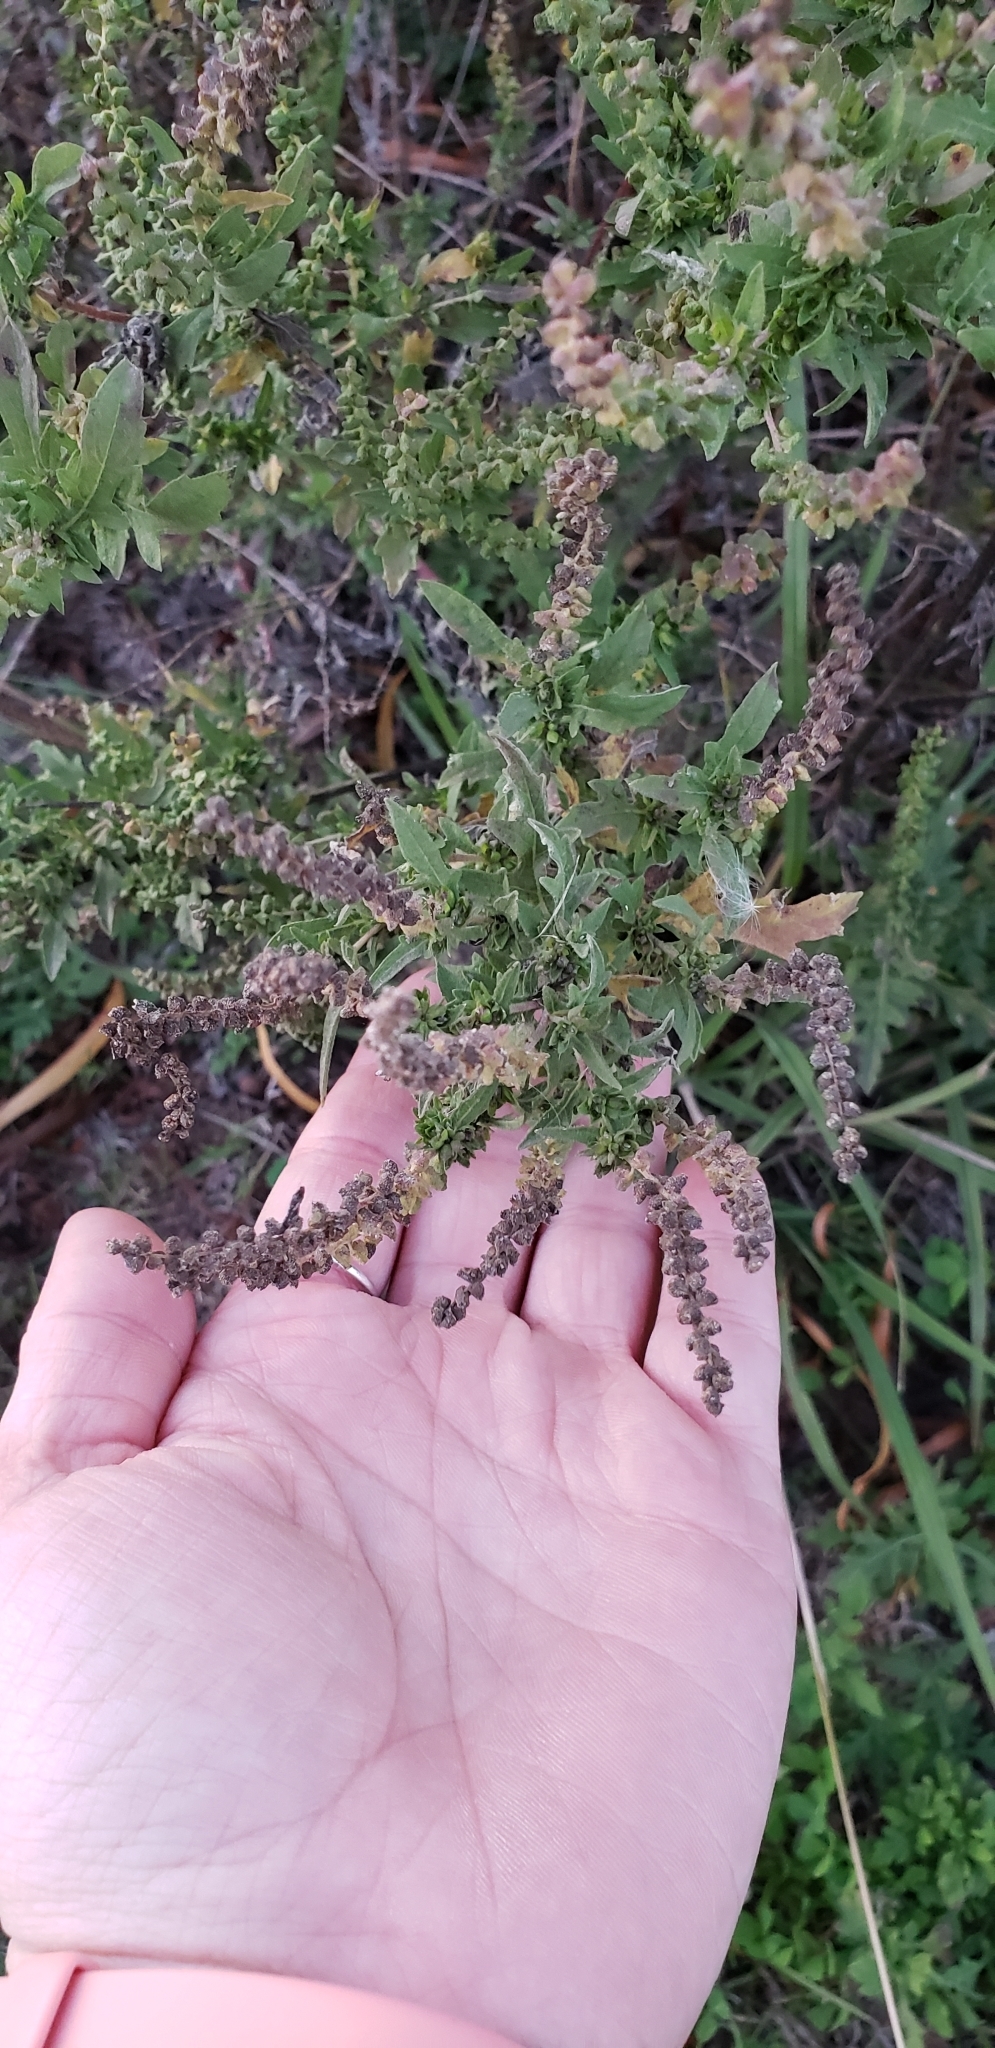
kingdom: Plantae
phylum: Tracheophyta
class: Magnoliopsida
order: Asterales
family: Asteraceae
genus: Ambrosia
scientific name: Ambrosia psilostachya
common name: Perennial ragweed
